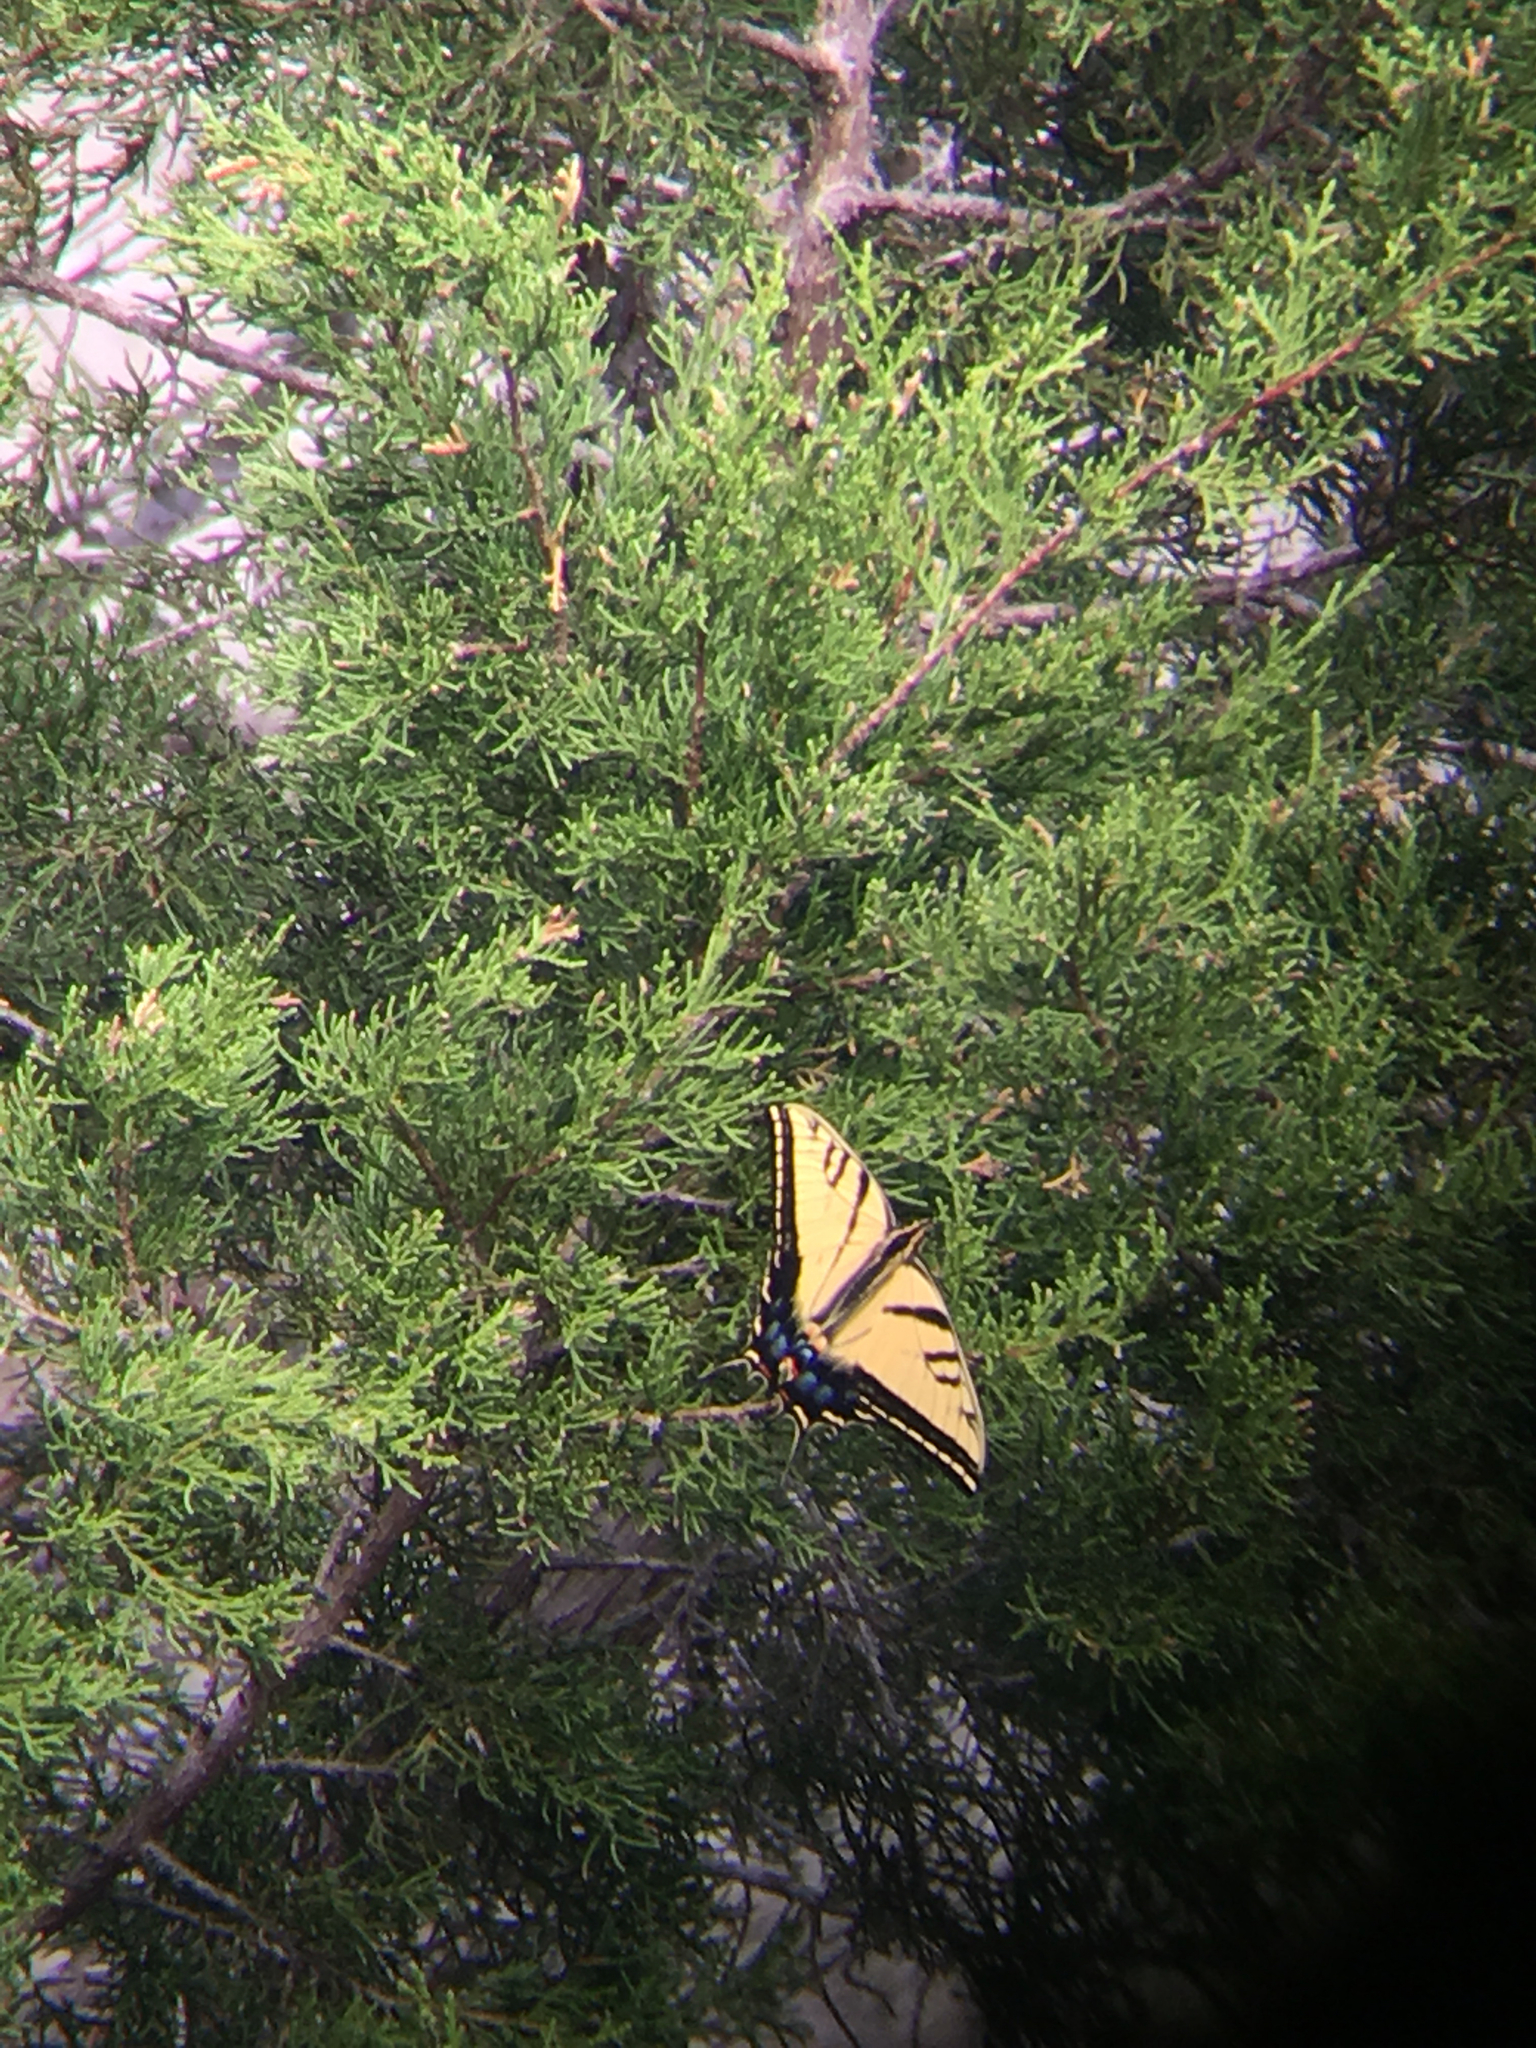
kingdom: Animalia
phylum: Arthropoda
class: Insecta
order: Lepidoptera
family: Papilionidae
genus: Papilio
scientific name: Papilio multicaudata
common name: Two-tailed tiger swallowtail
